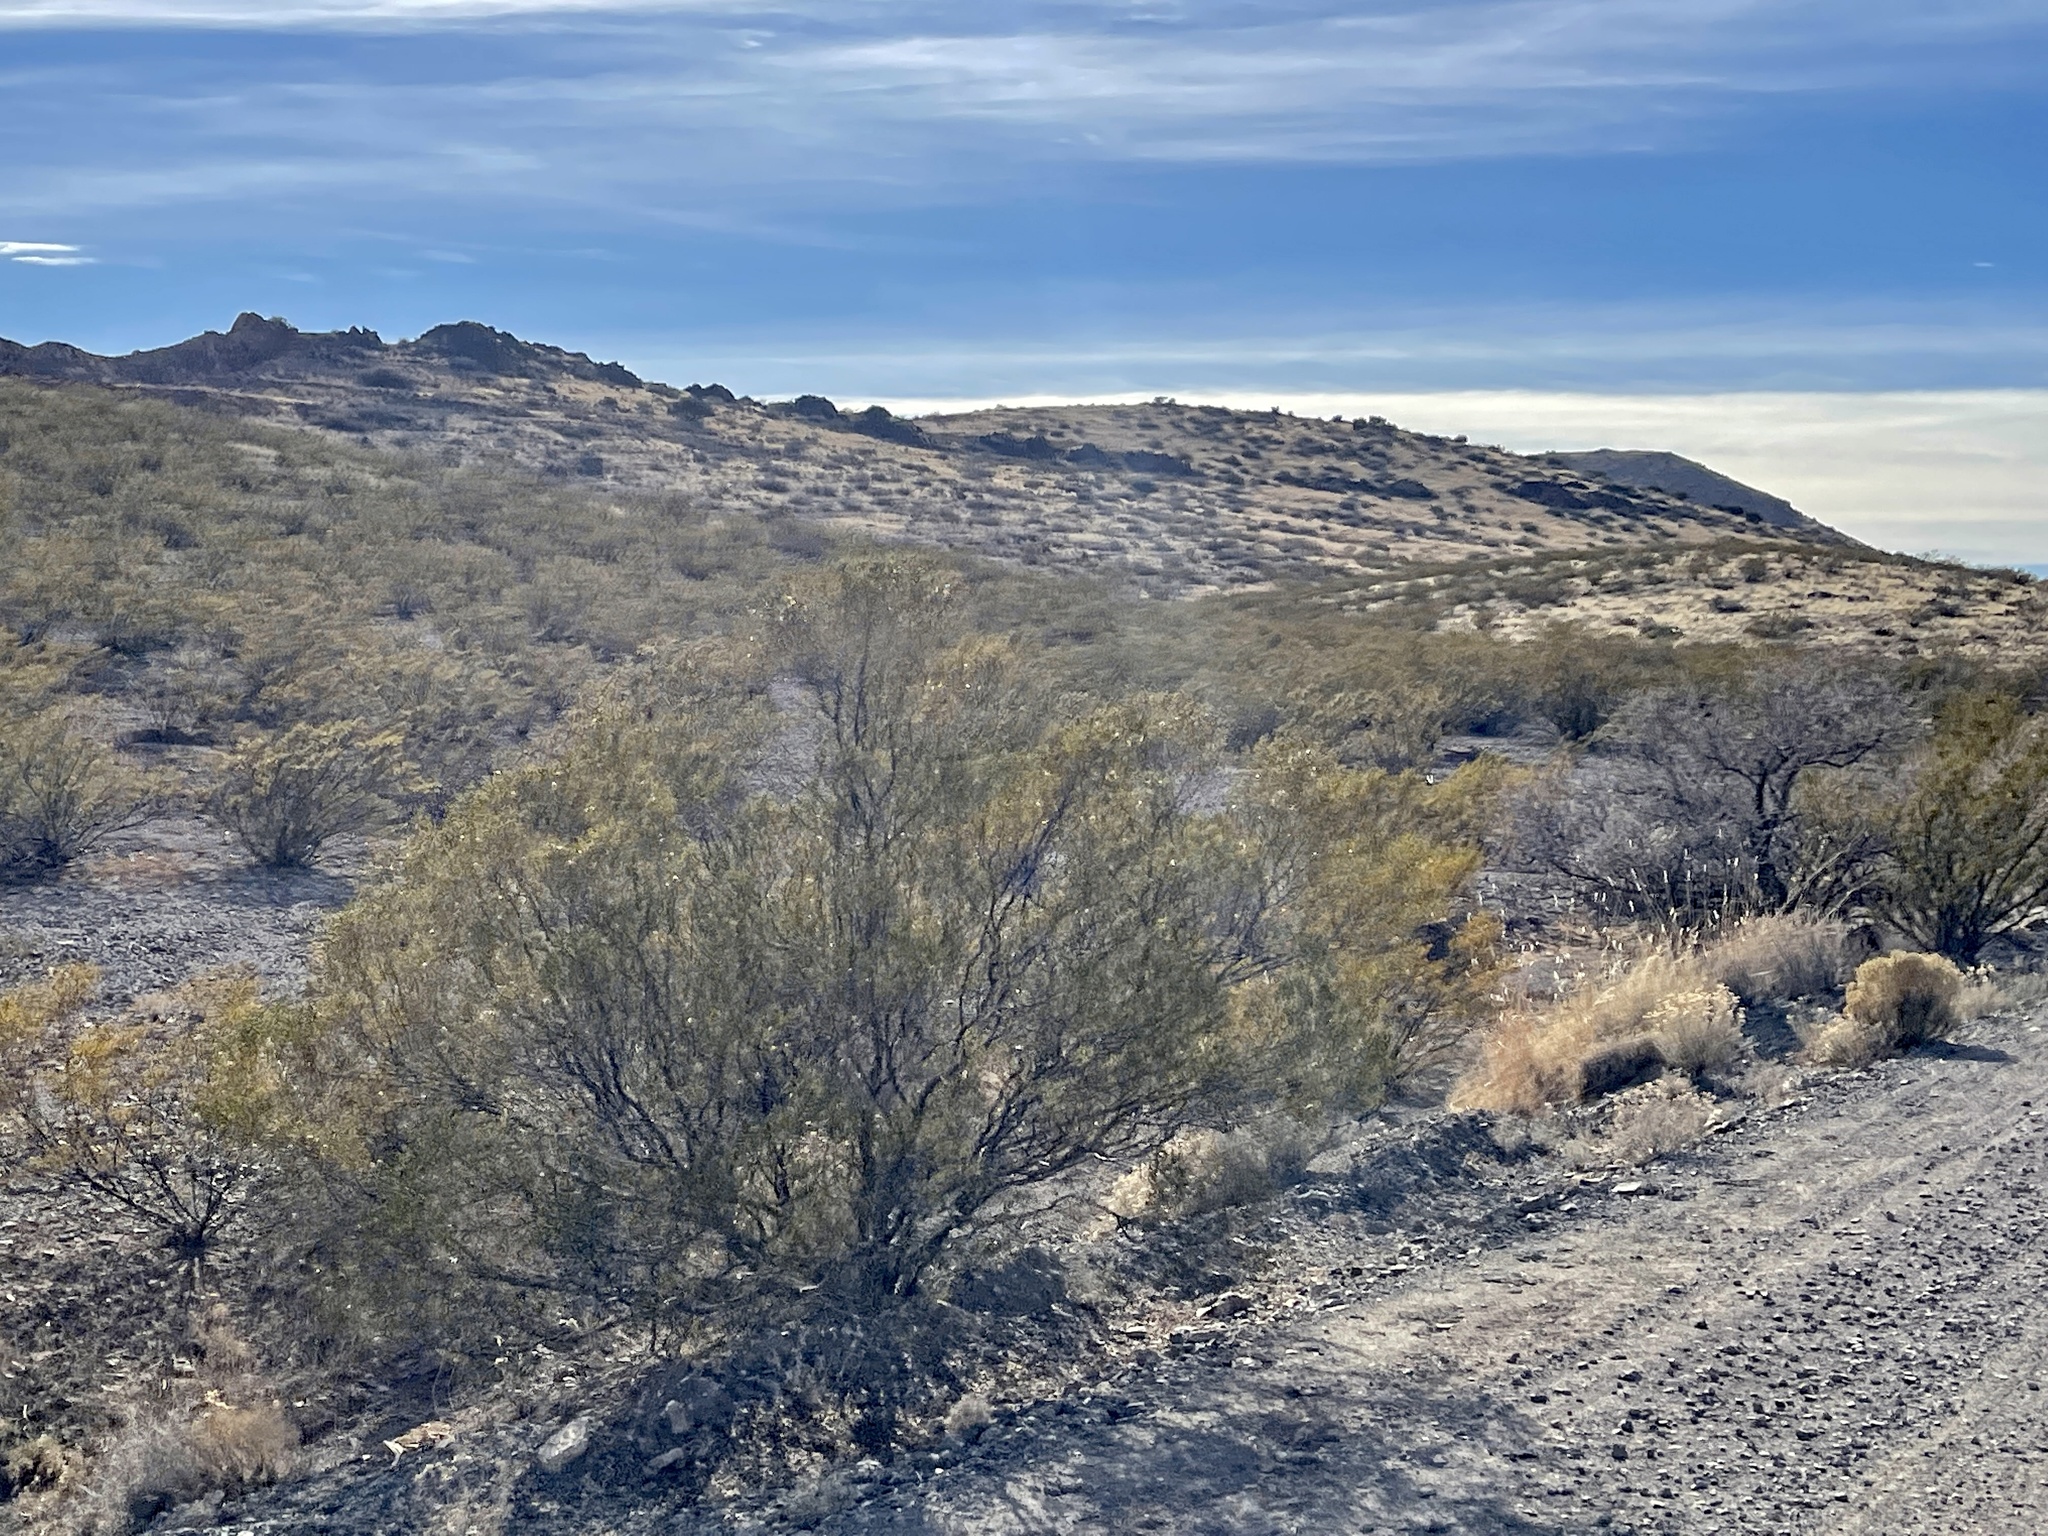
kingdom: Plantae
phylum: Tracheophyta
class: Magnoliopsida
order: Zygophyllales
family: Zygophyllaceae
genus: Larrea
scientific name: Larrea tridentata
